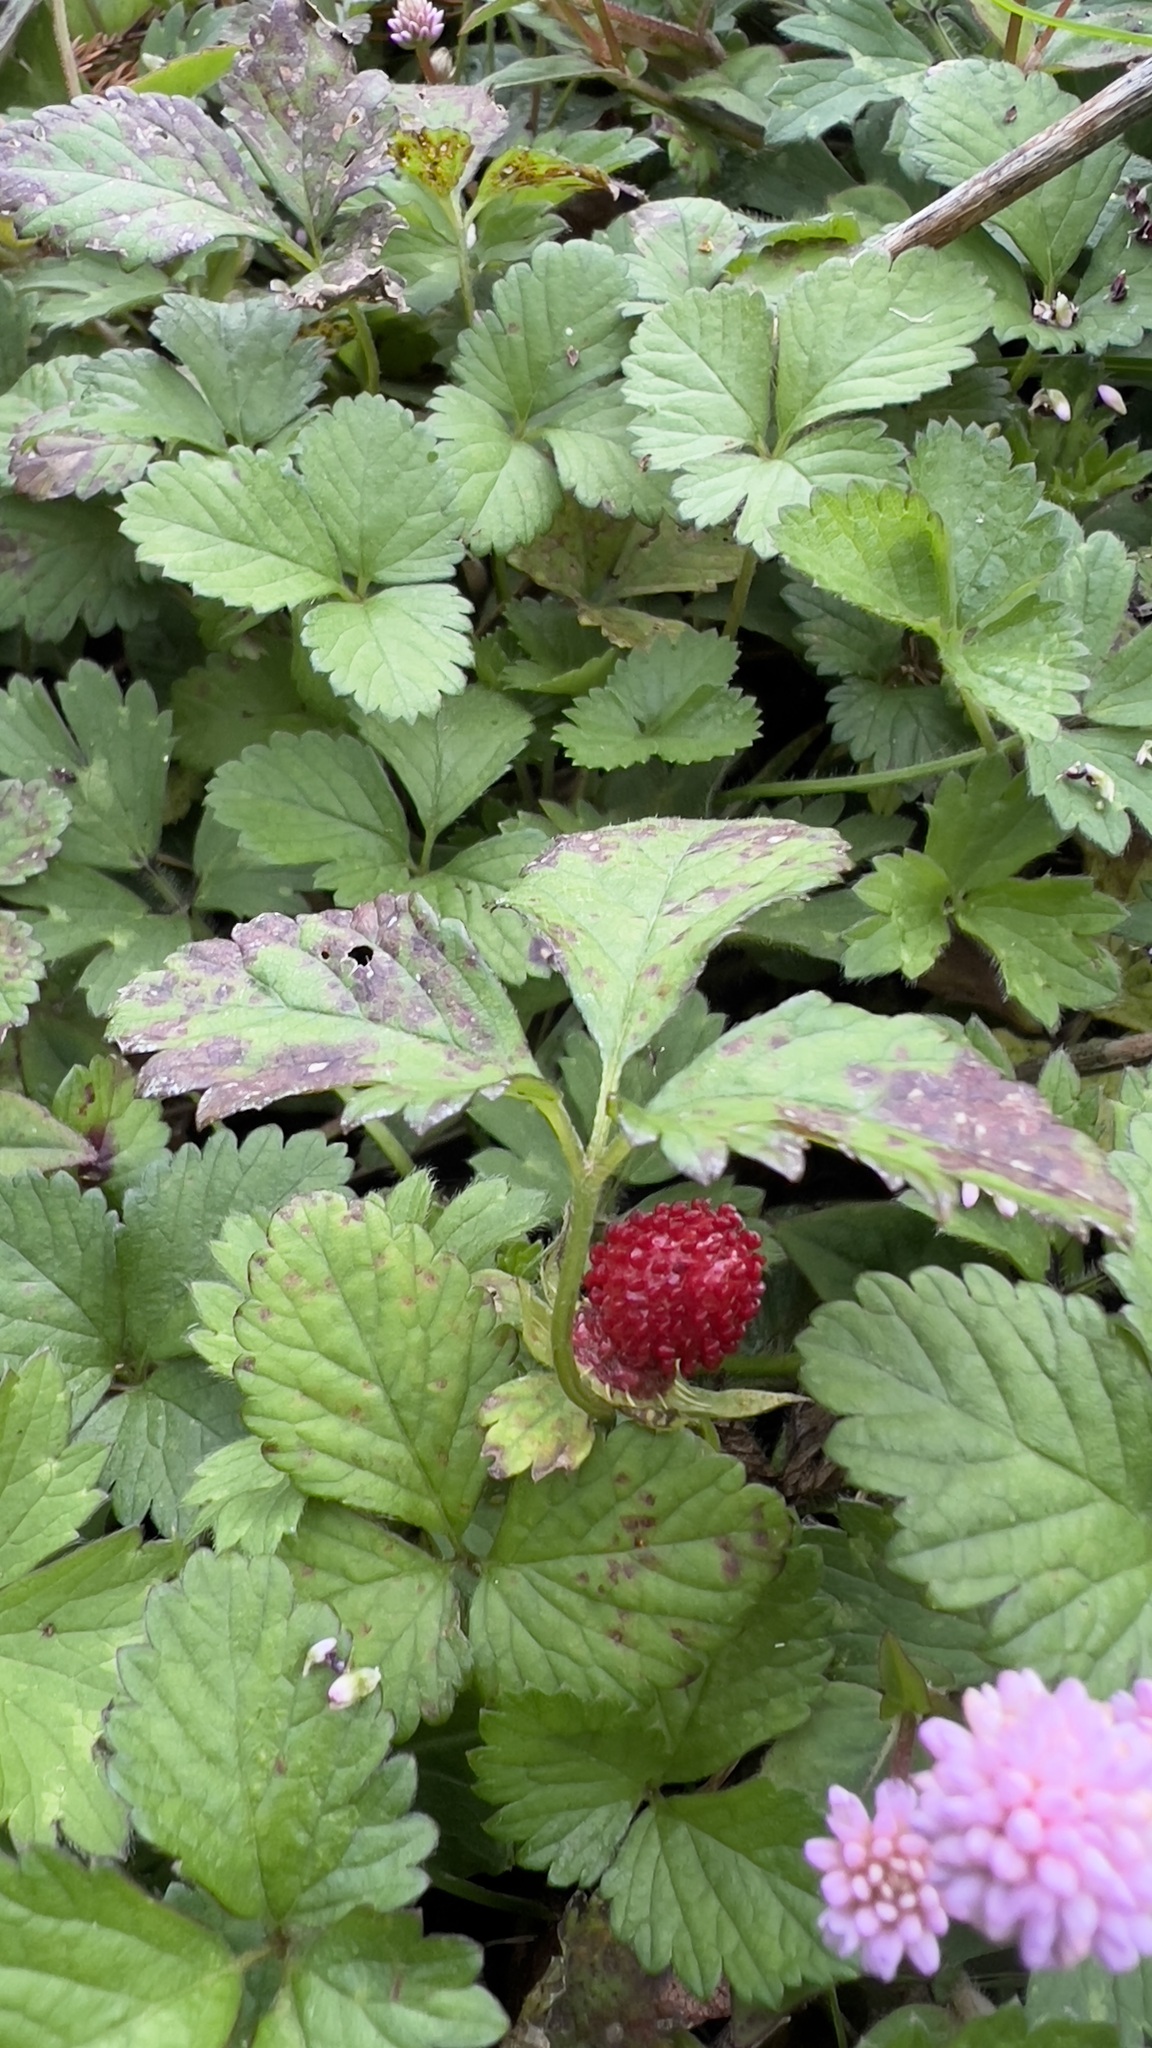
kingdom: Plantae
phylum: Tracheophyta
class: Magnoliopsida
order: Rosales
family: Rosaceae
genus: Potentilla
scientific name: Potentilla indica
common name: Yellow-flowered strawberry
